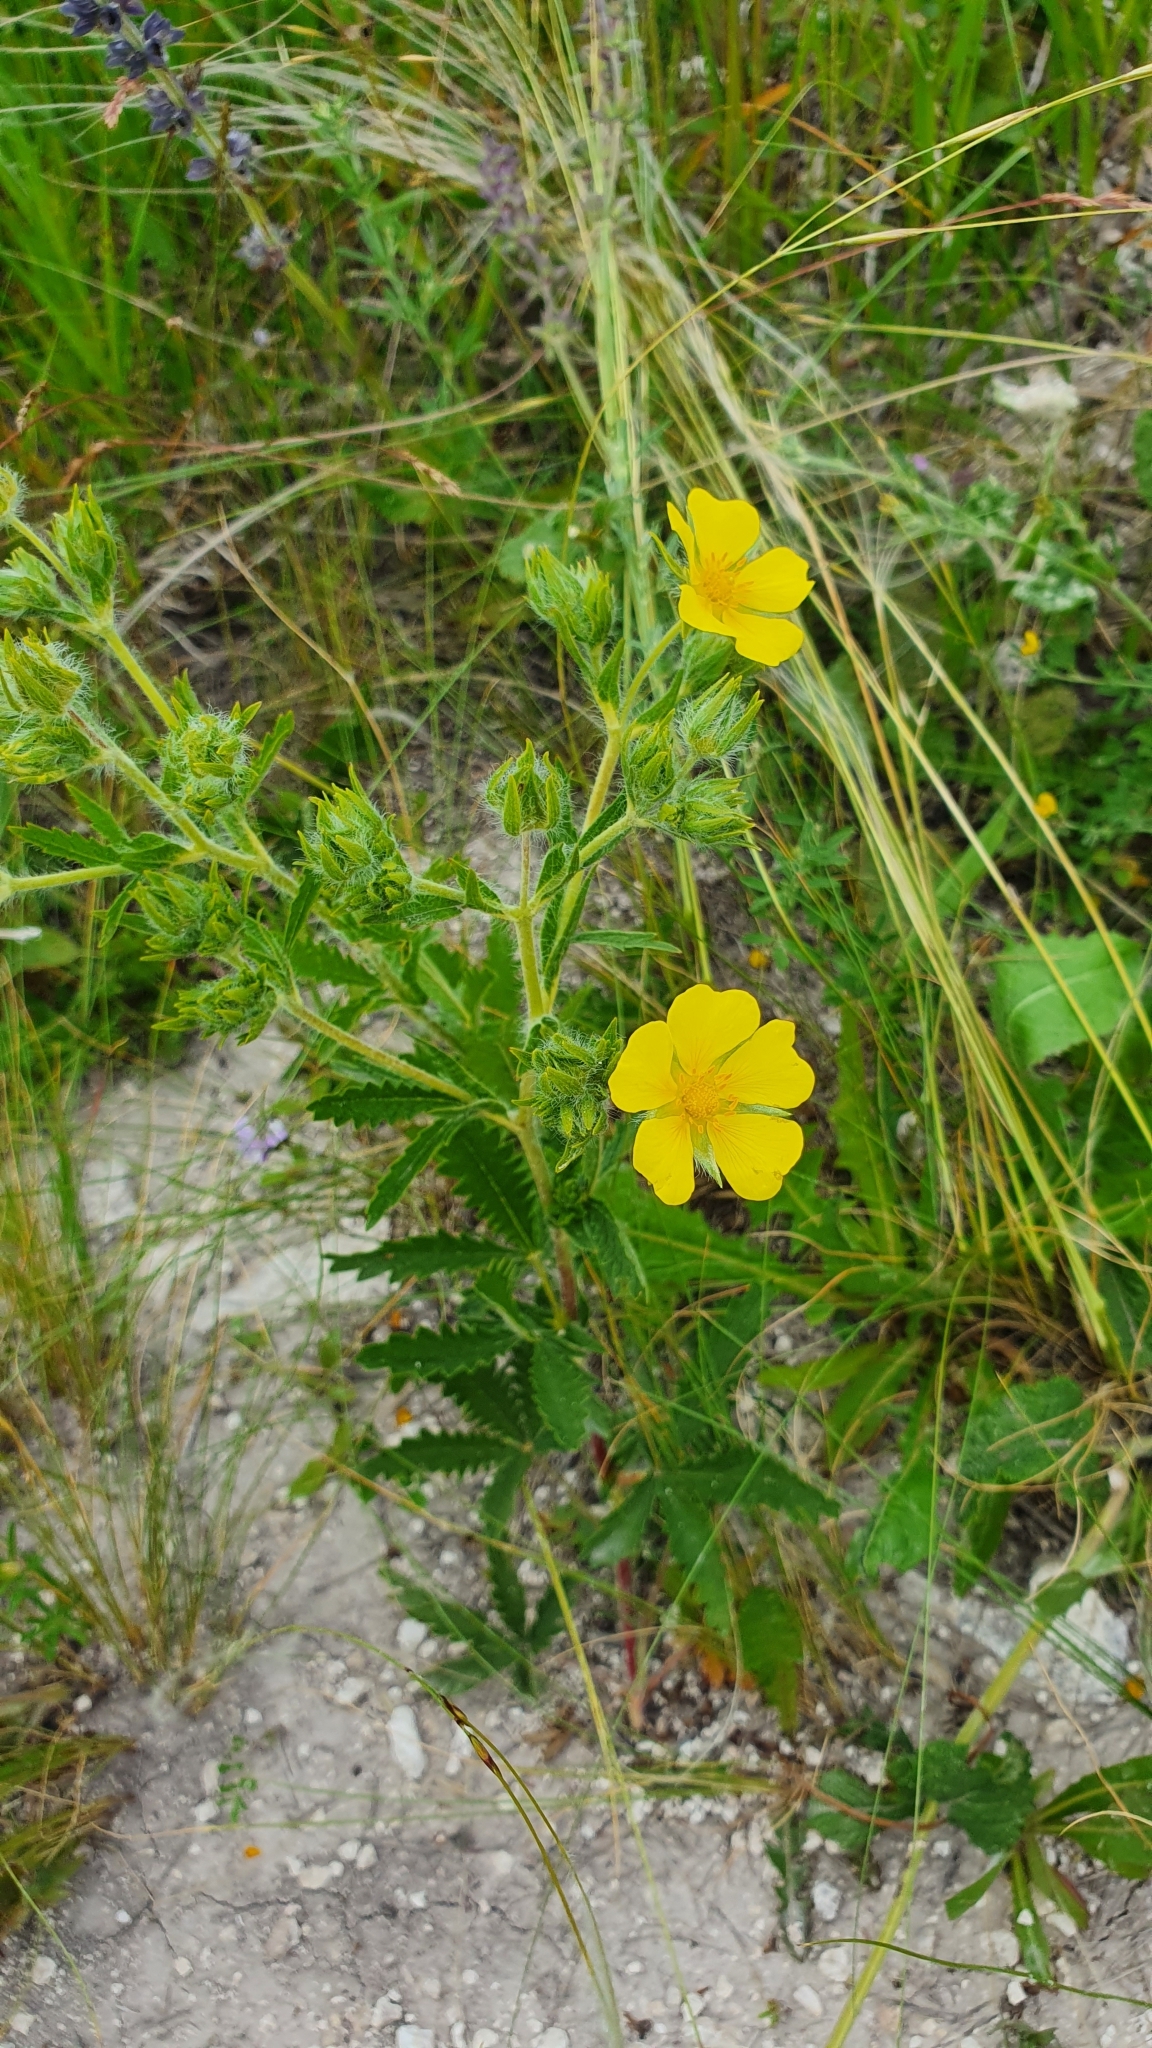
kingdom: Plantae
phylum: Tracheophyta
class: Magnoliopsida
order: Rosales
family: Rosaceae
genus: Potentilla
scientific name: Potentilla recta
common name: Sulphur cinquefoil
